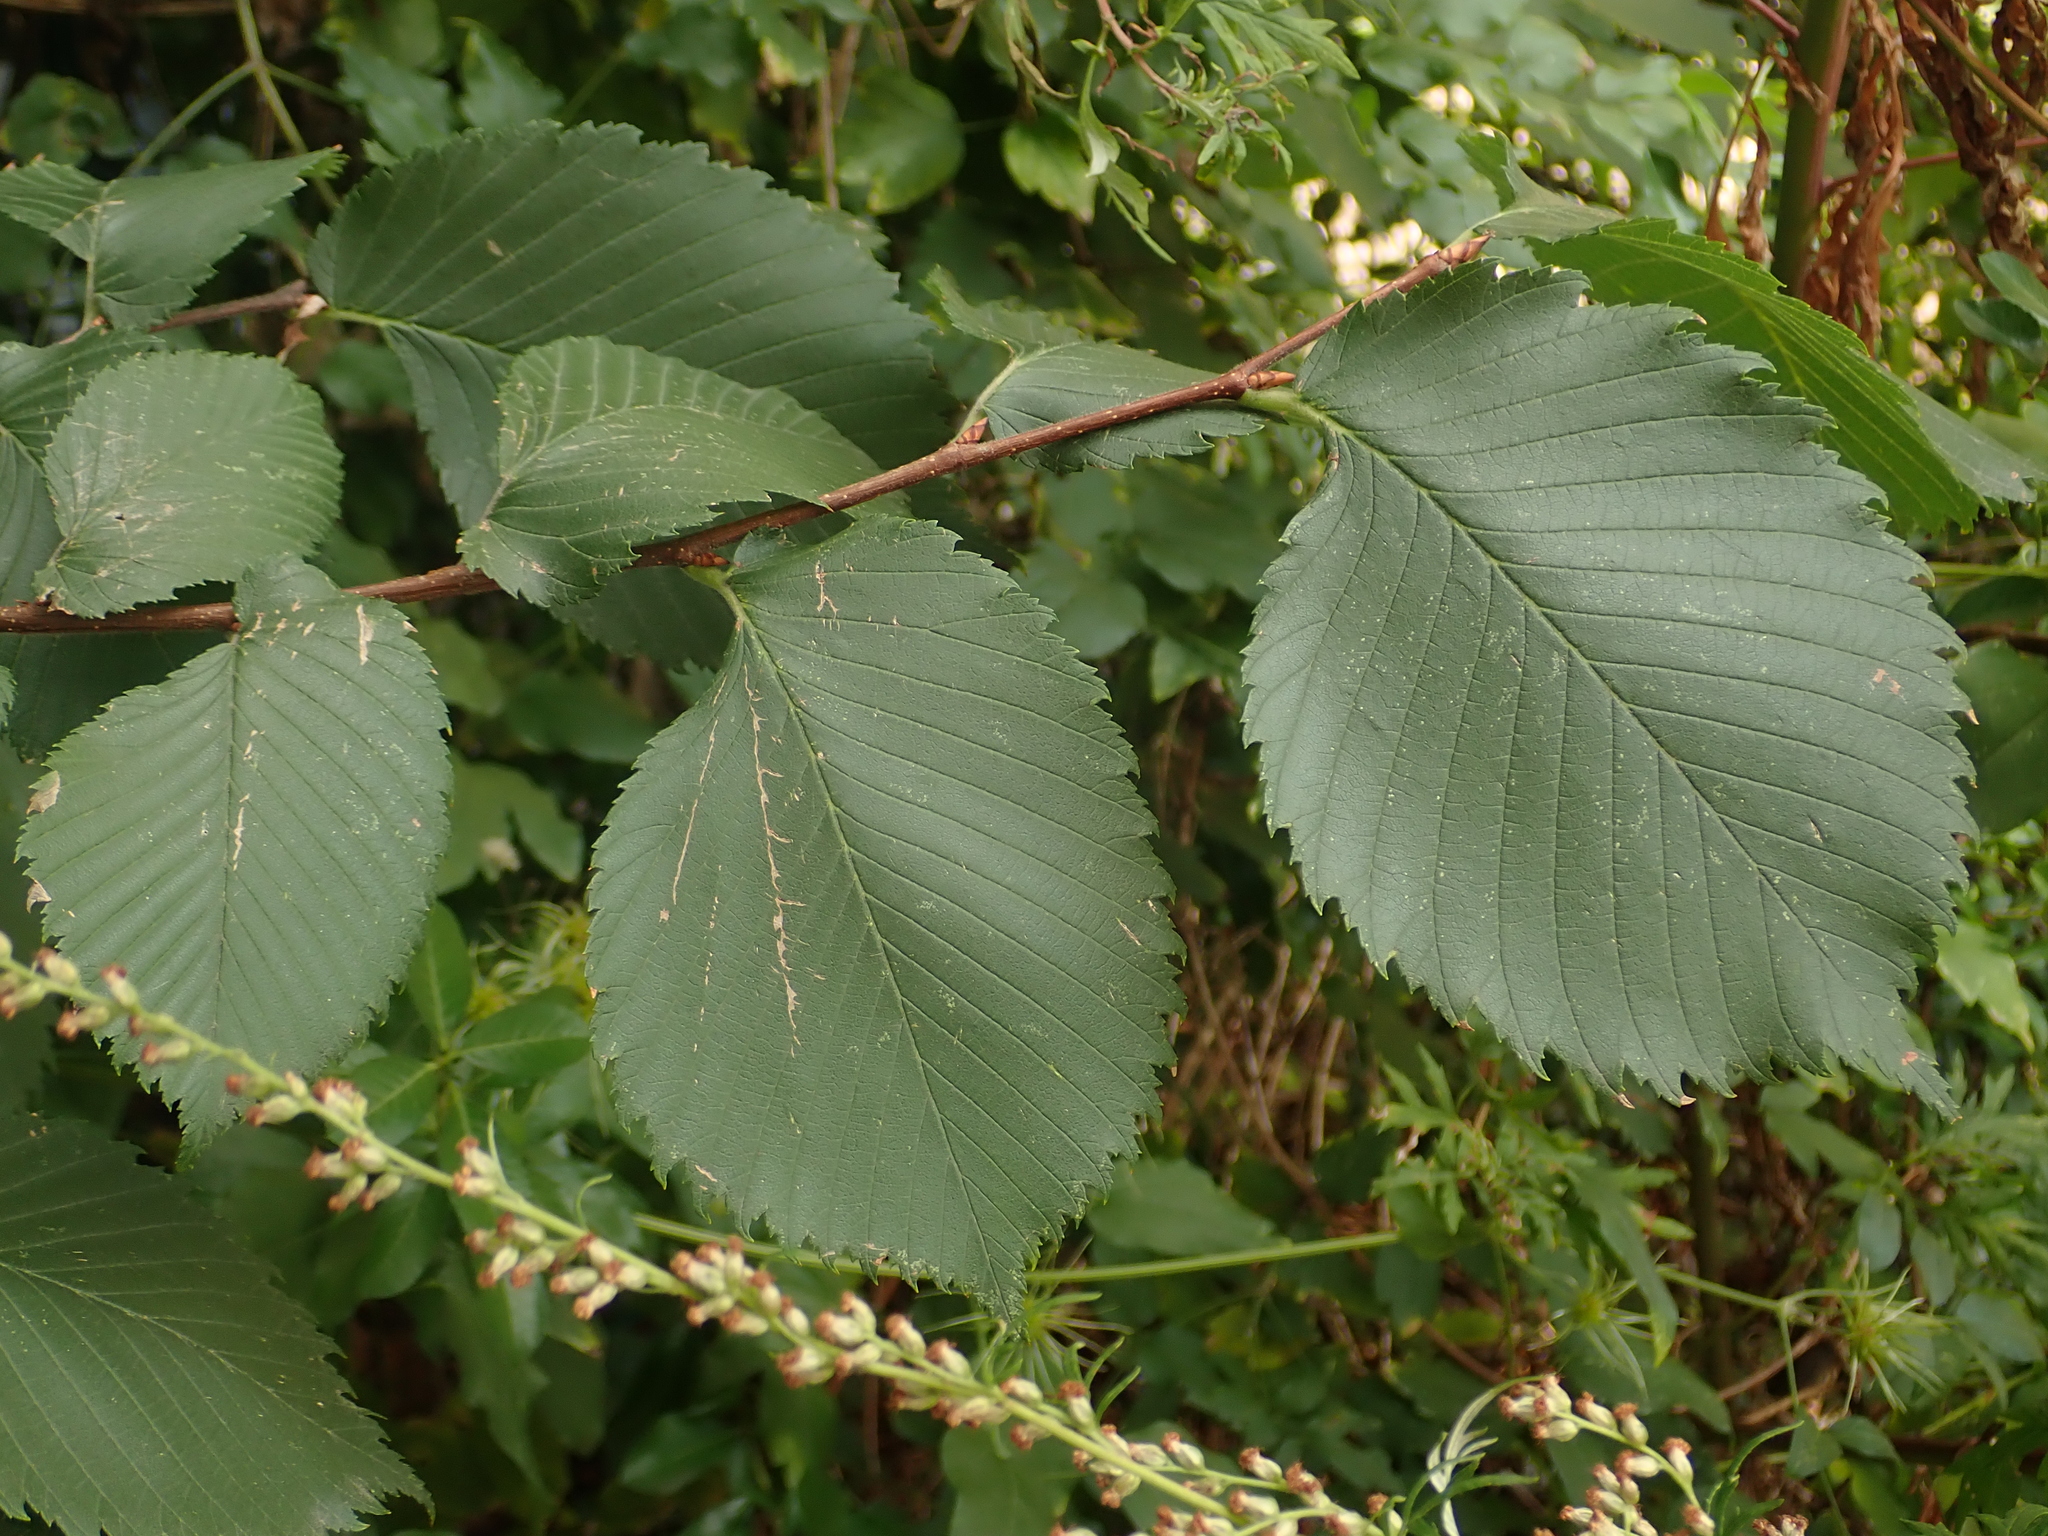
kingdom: Plantae
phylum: Tracheophyta
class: Magnoliopsida
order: Rosales
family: Ulmaceae
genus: Ulmus
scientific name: Ulmus laevis
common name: European white-elm
